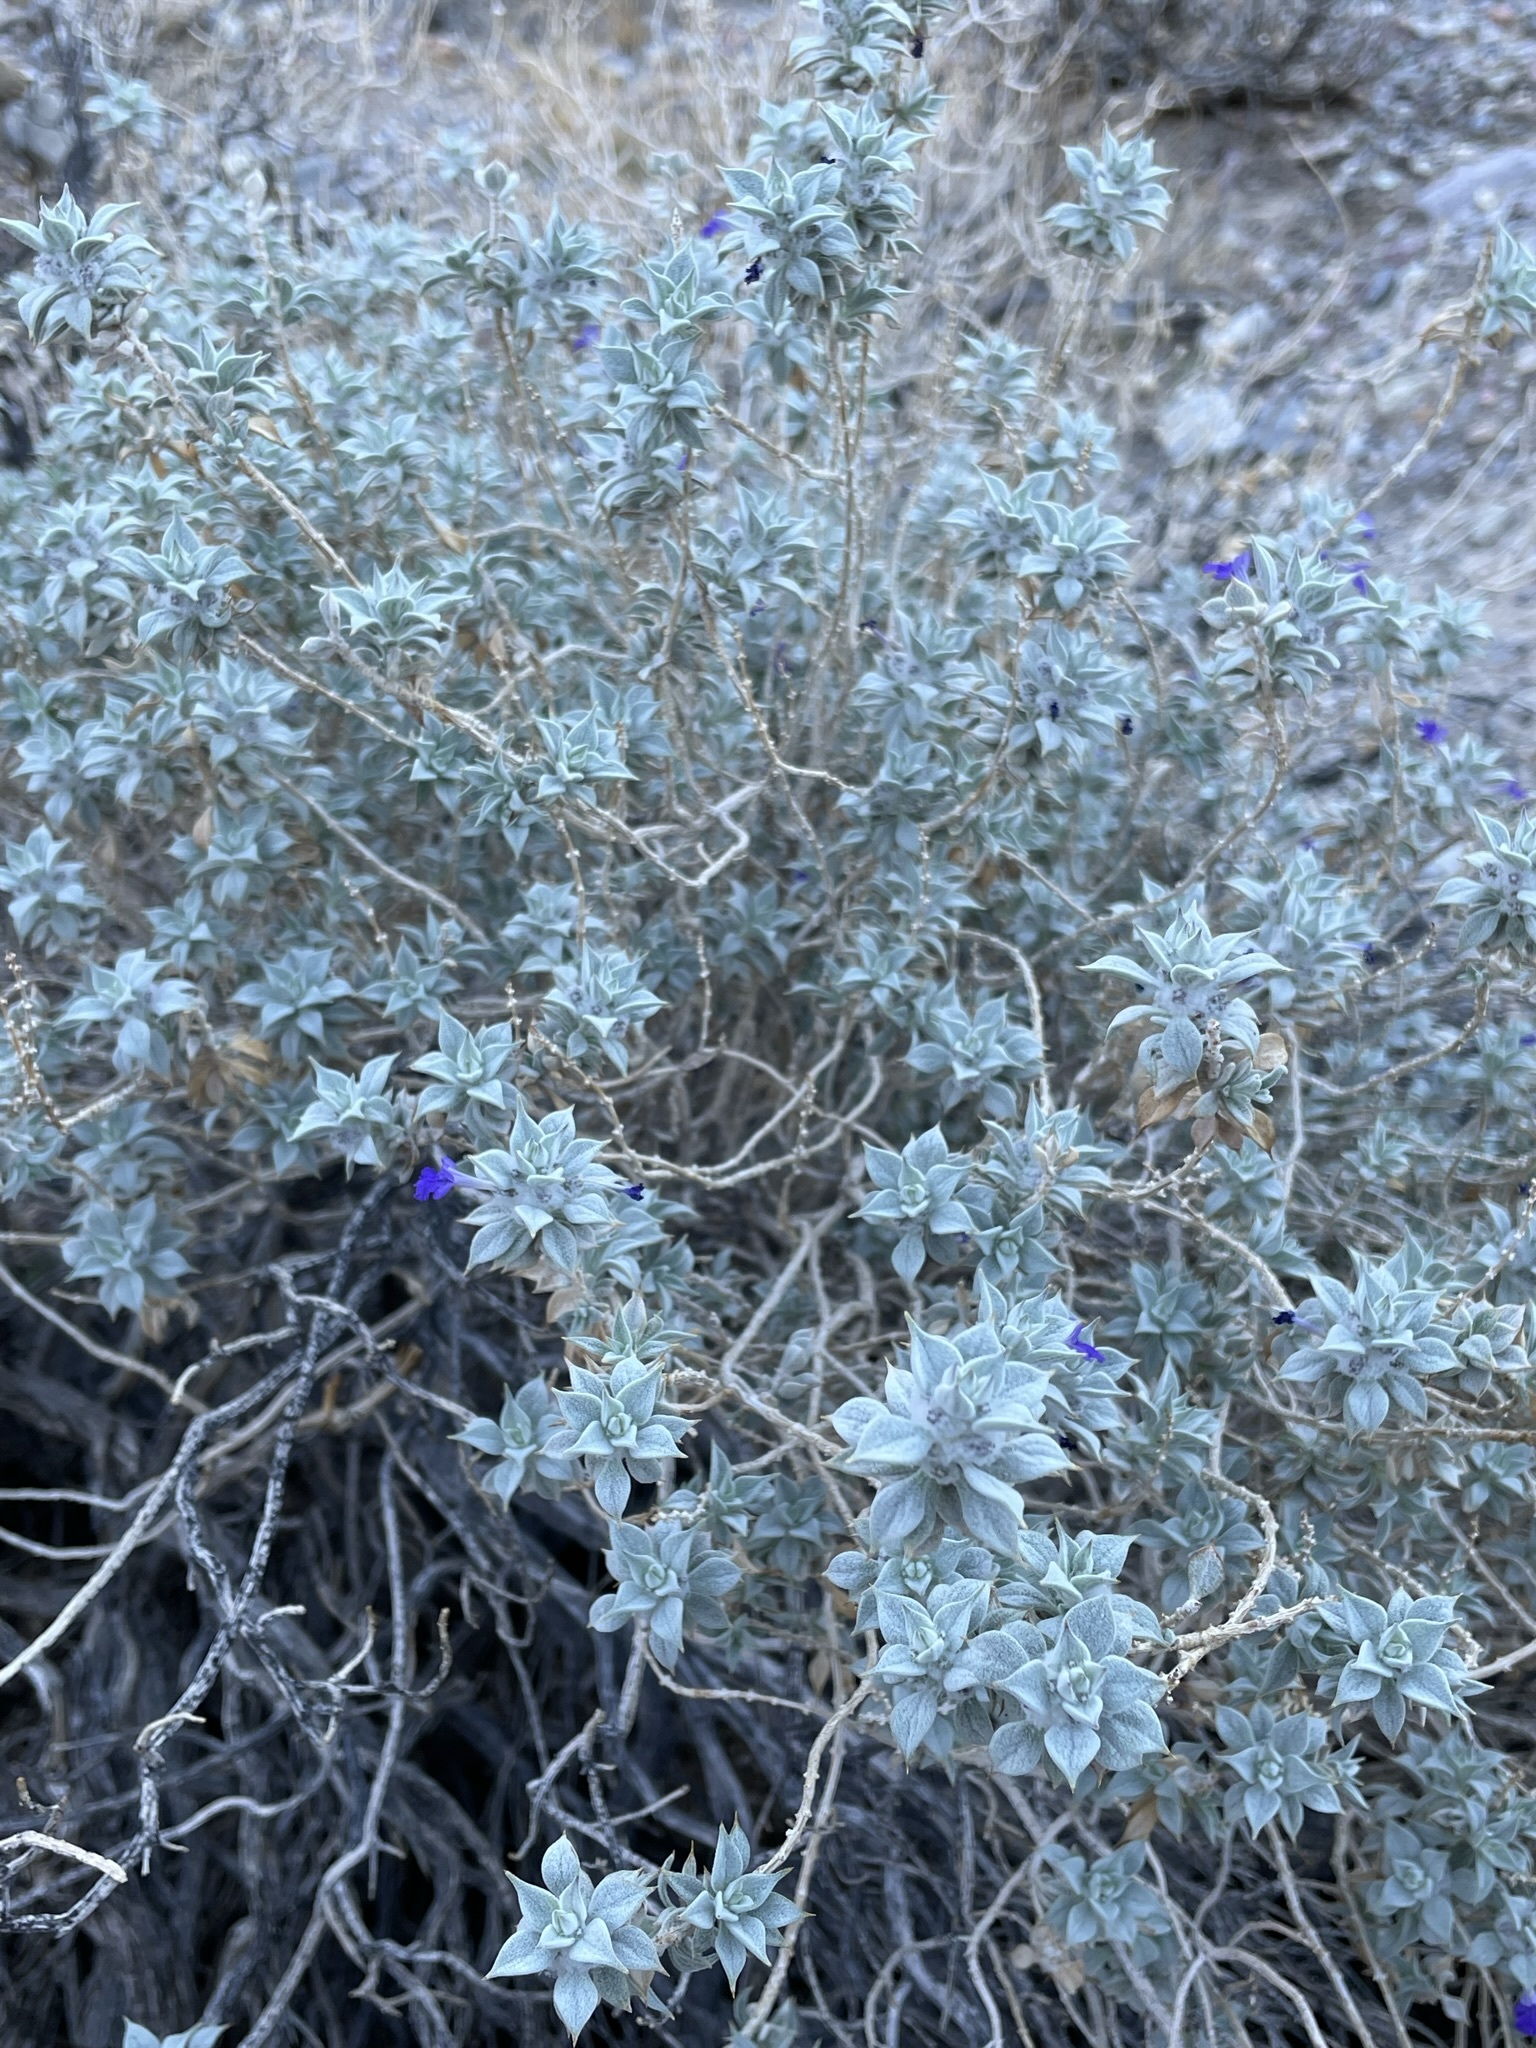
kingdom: Plantae
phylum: Tracheophyta
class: Magnoliopsida
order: Lamiales
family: Lamiaceae
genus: Salvia
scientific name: Salvia funerea
